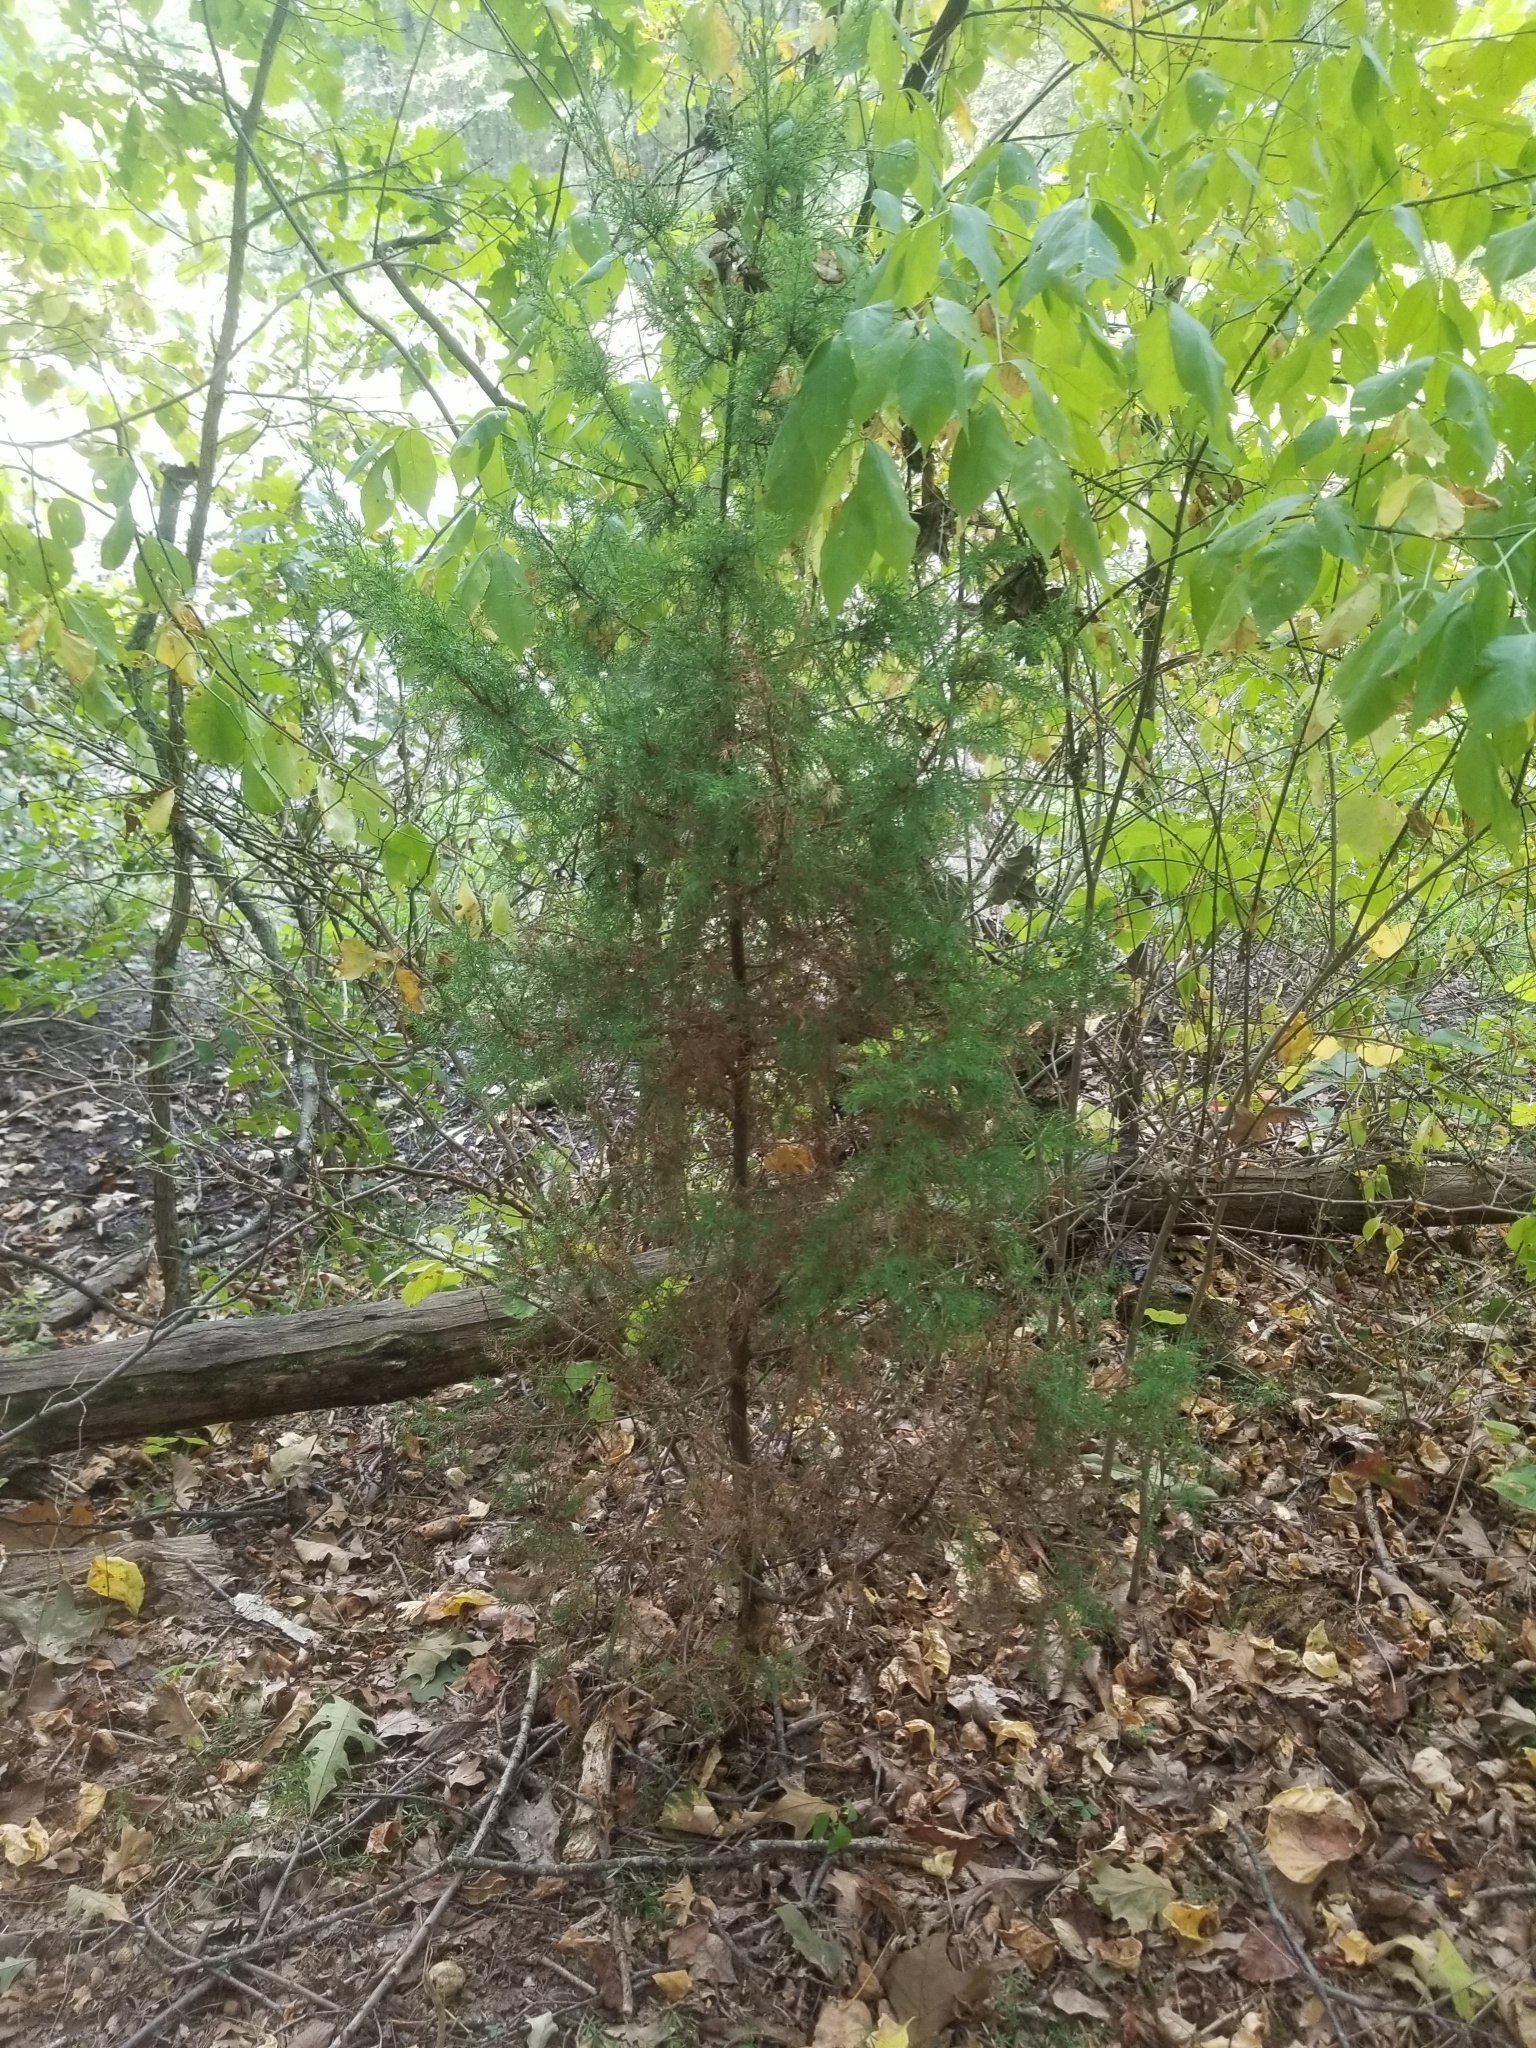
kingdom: Plantae
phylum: Tracheophyta
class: Pinopsida
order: Pinales
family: Cupressaceae
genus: Juniperus
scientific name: Juniperus virginiana
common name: Red juniper
